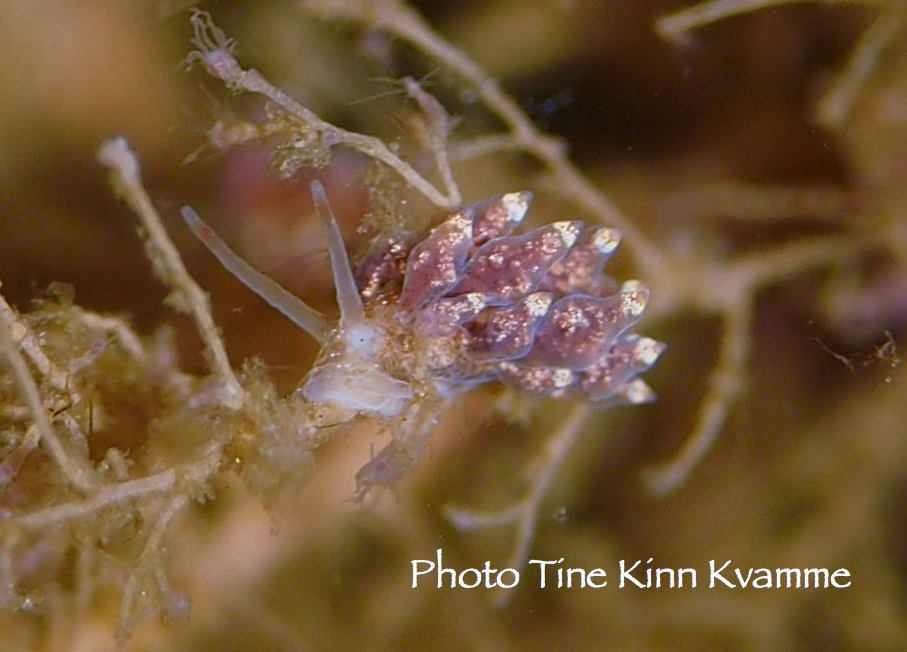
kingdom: Animalia
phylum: Mollusca
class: Gastropoda
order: Nudibranchia
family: Eubranchidae
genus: Eubranchus
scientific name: Eubranchus exiguus
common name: Balloon aeolis
